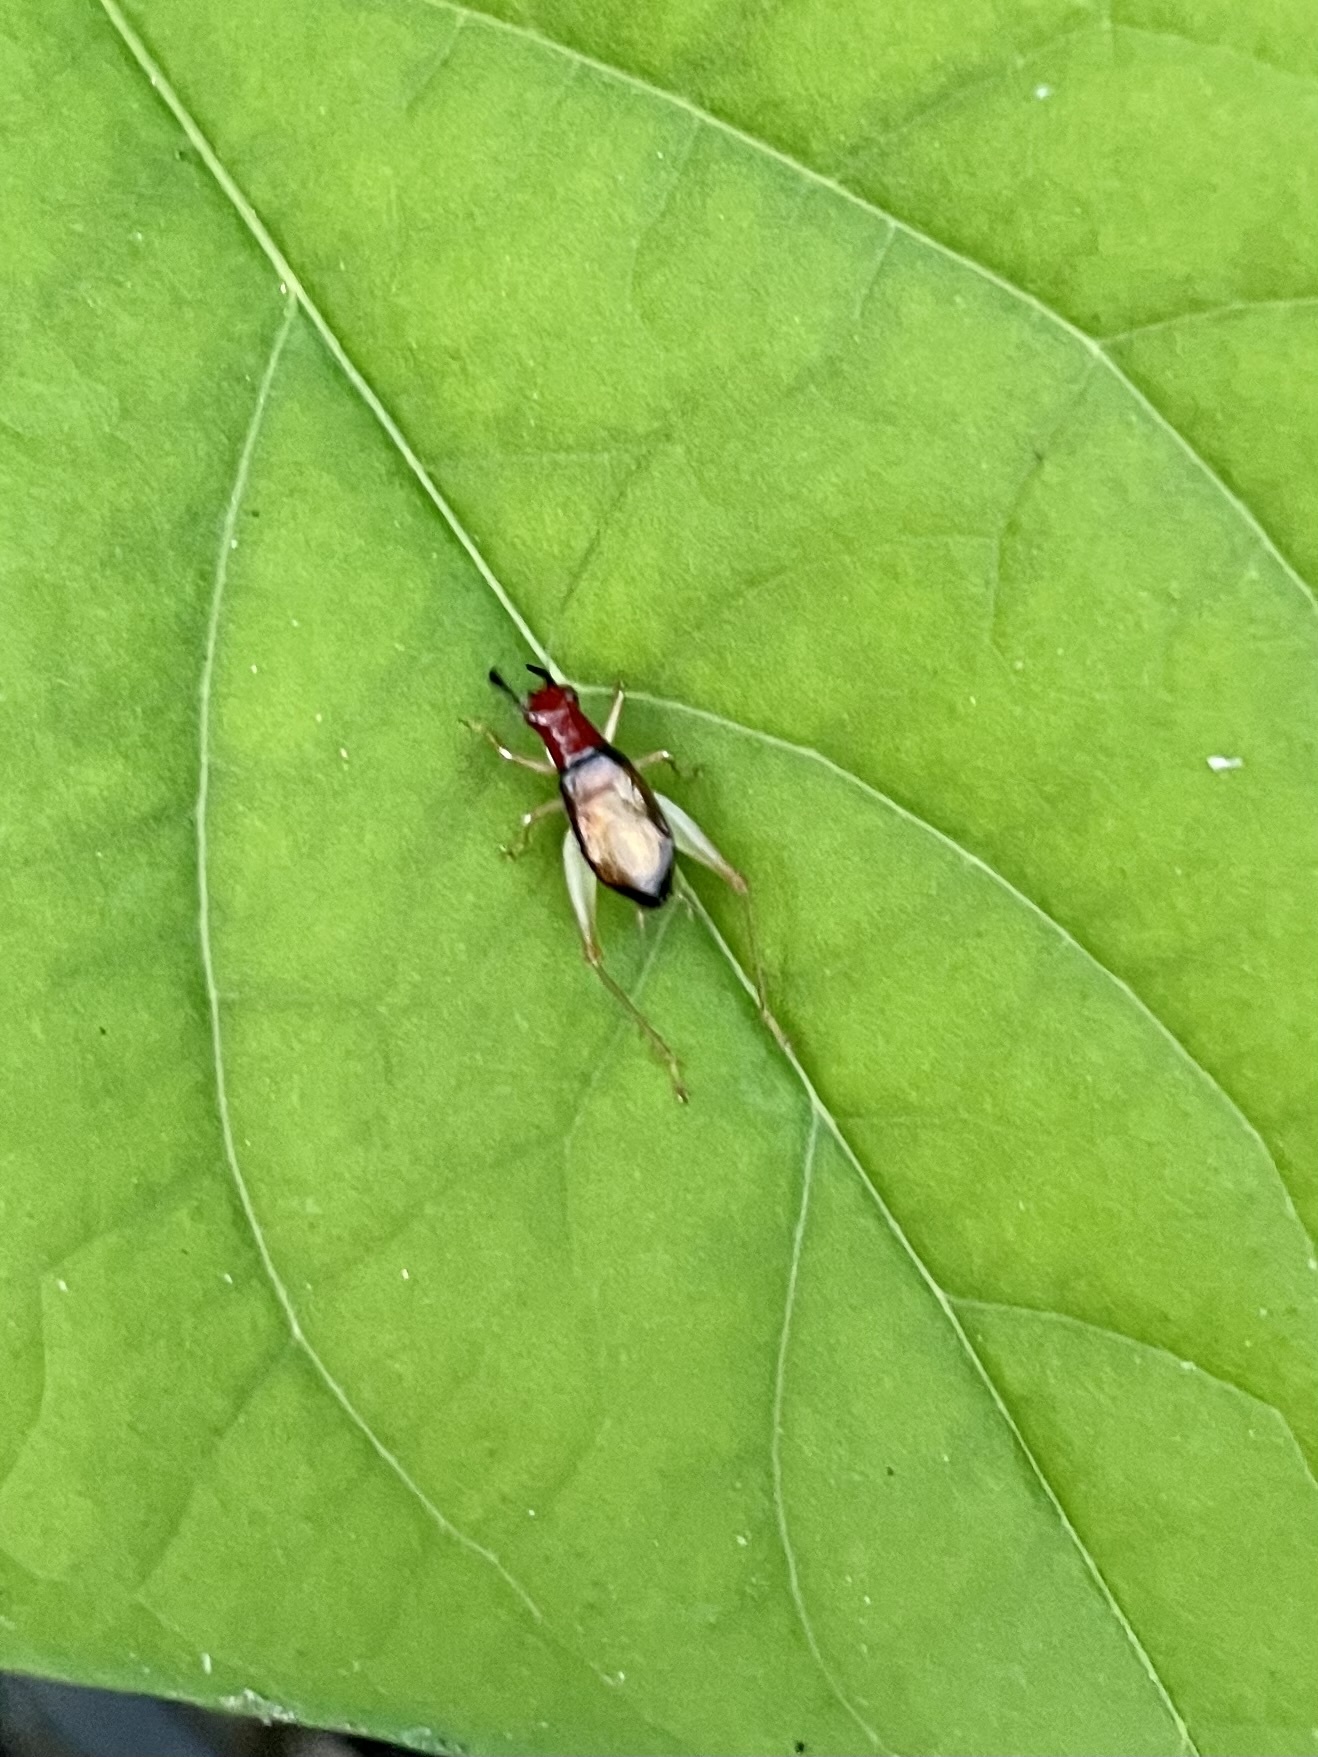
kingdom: Animalia
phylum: Arthropoda
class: Insecta
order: Orthoptera
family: Trigonidiidae
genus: Phyllopalpus
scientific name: Phyllopalpus pulchellus
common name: Handsome trig
